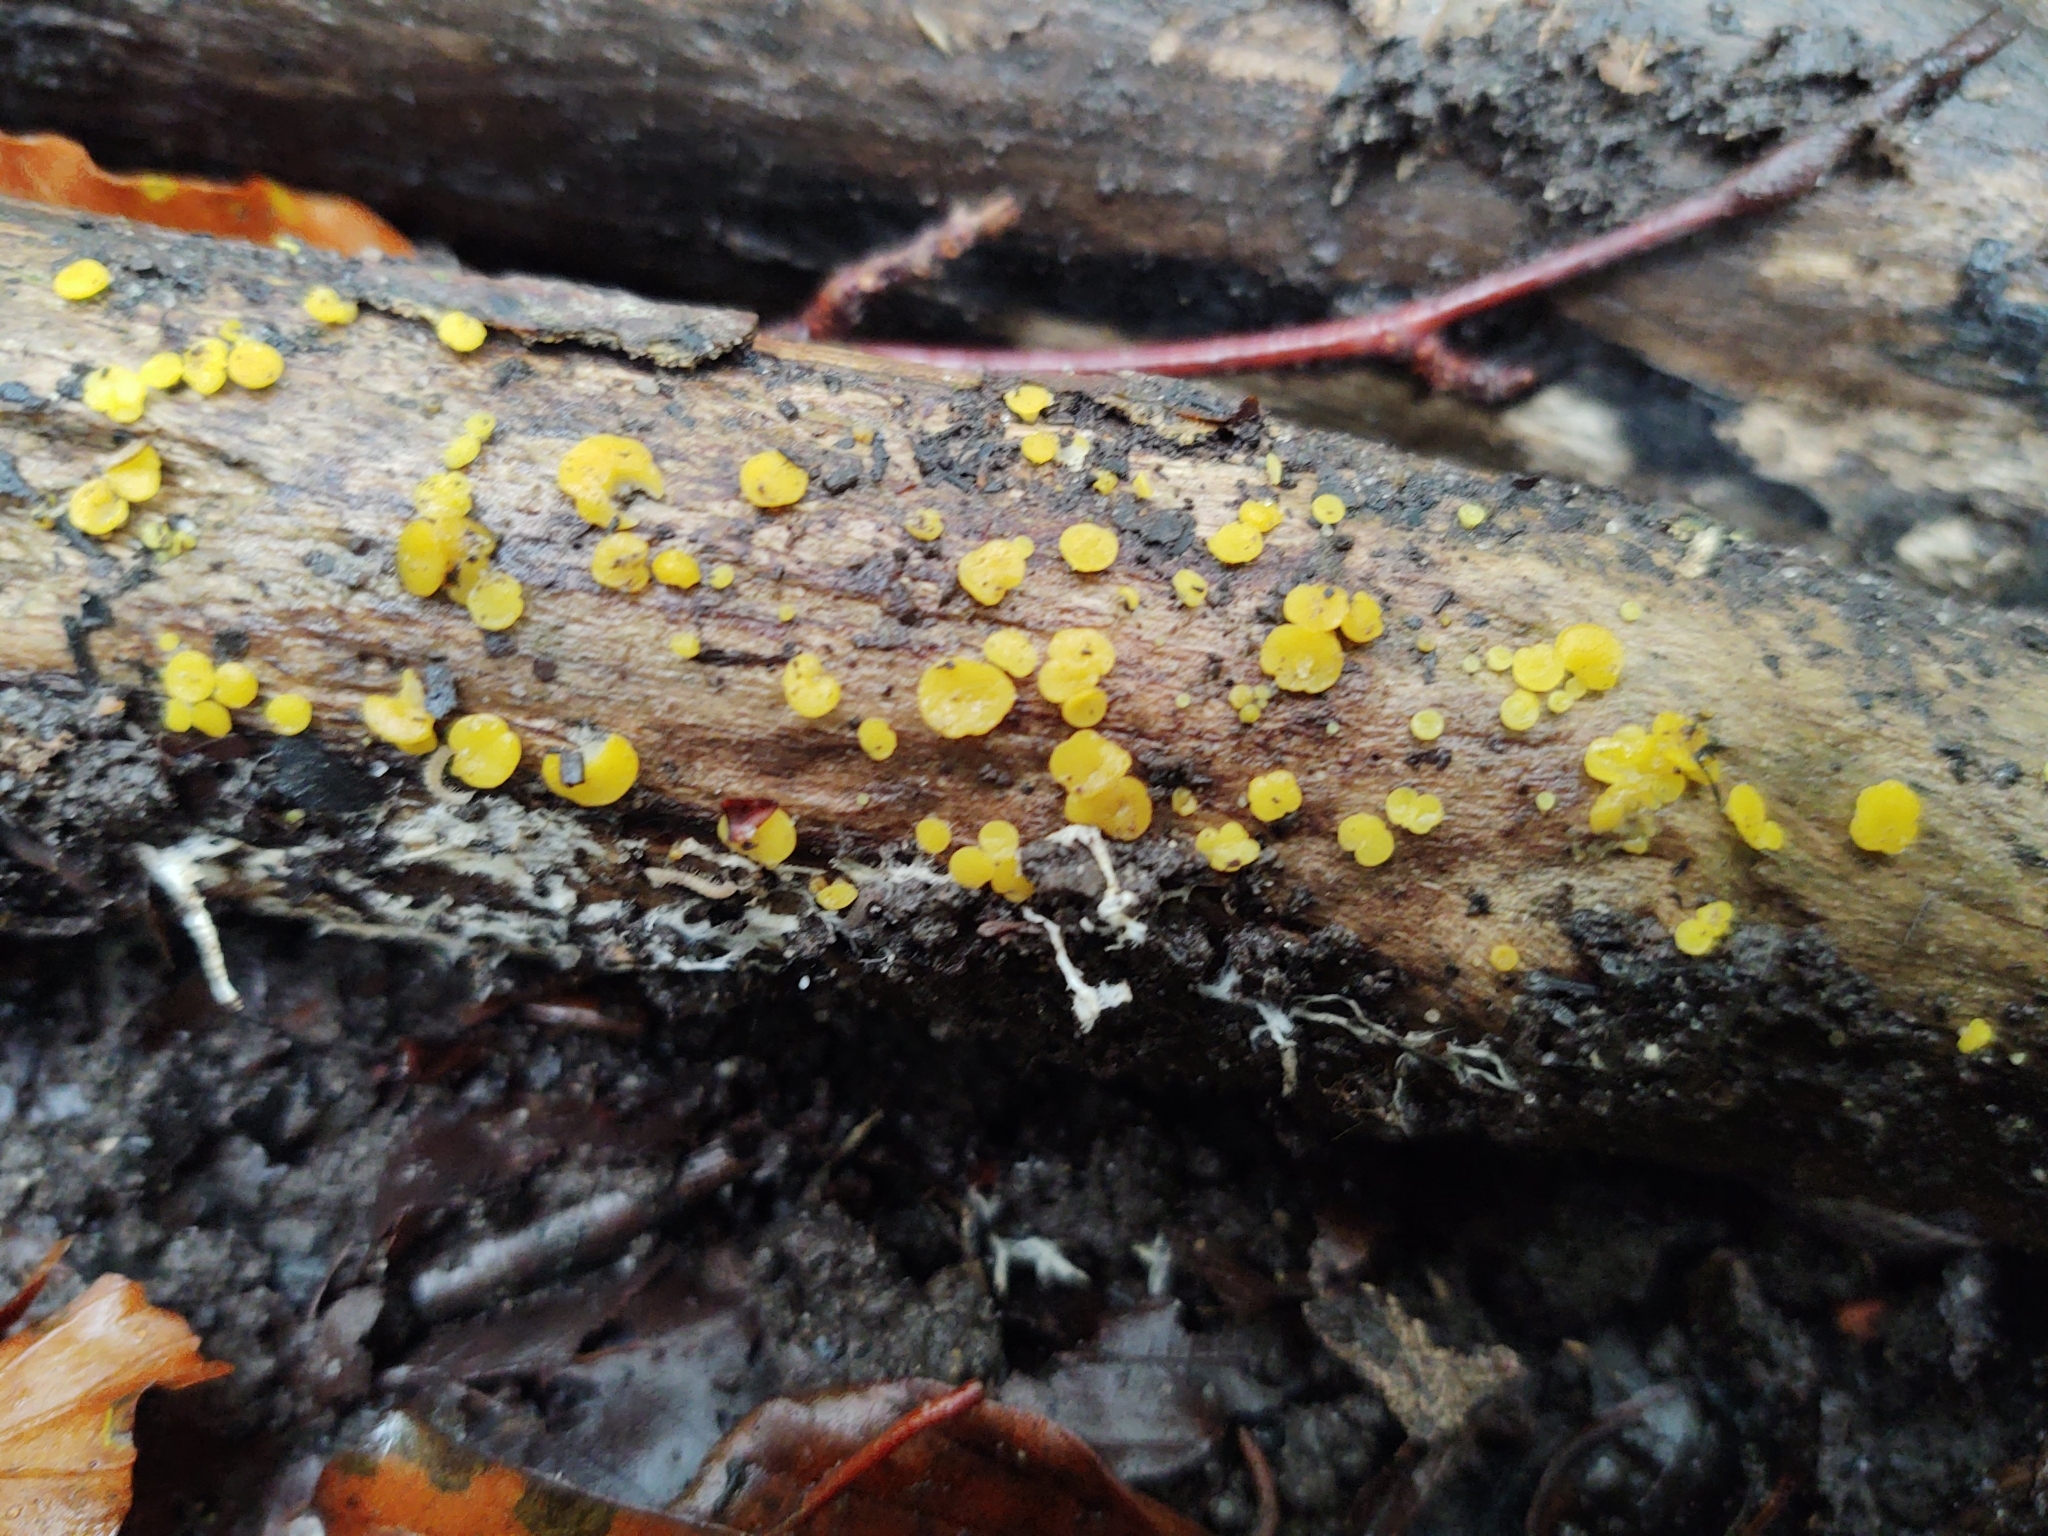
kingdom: Fungi
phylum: Ascomycota
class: Leotiomycetes
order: Helotiales
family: Pezizellaceae
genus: Calycina
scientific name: Calycina citrina
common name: Yellow fairy cups
